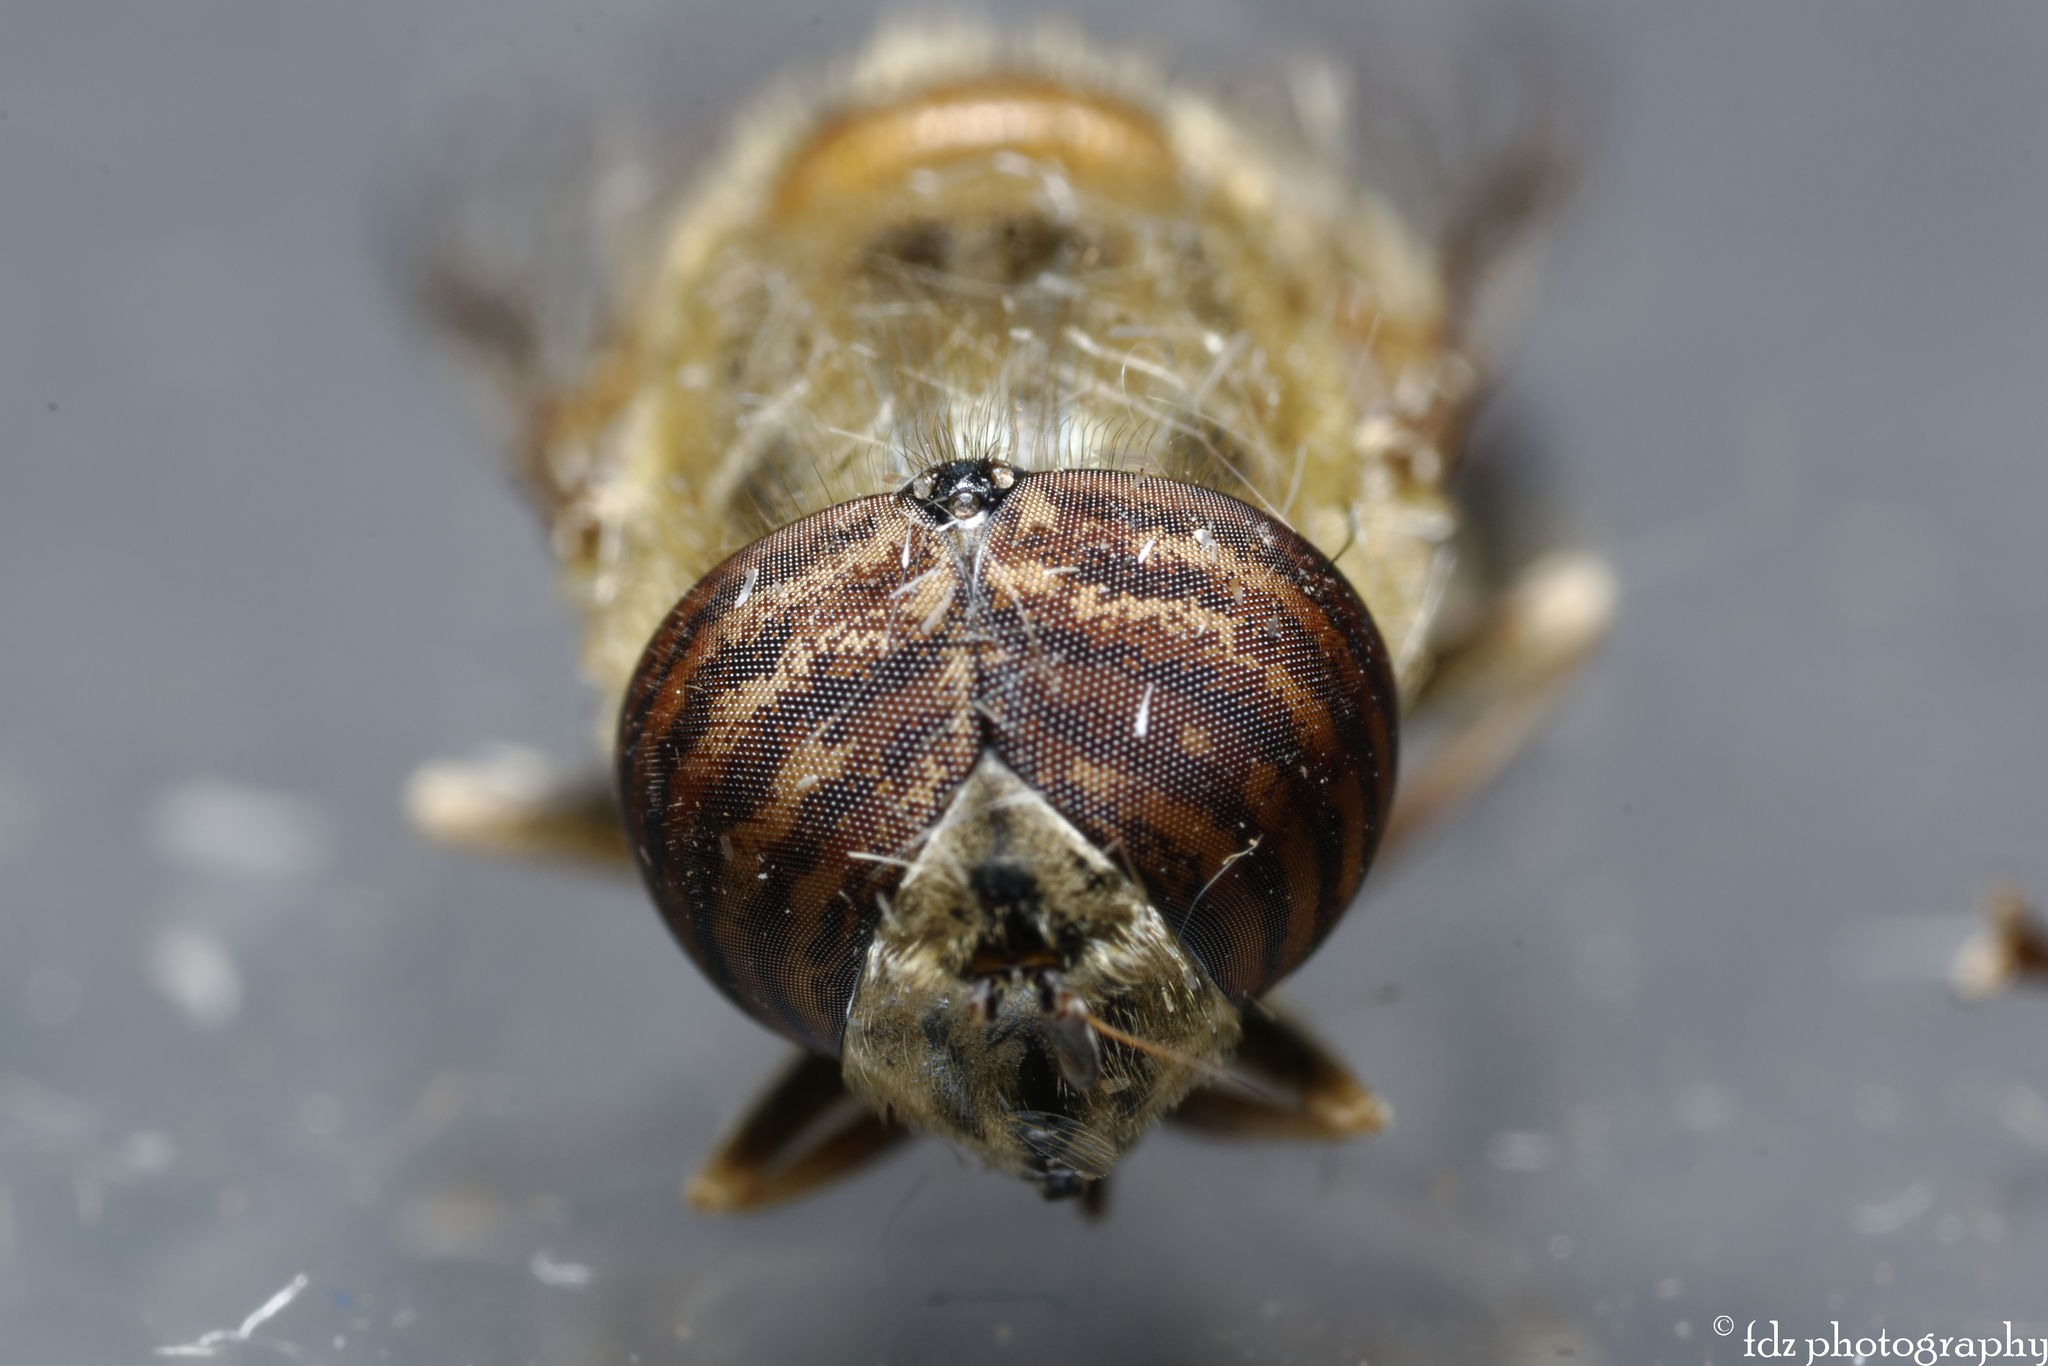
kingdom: Animalia
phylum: Arthropoda
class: Insecta
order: Diptera
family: Syrphidae
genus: Eristalinus
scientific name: Eristalinus taeniops
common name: Syrphid fly
